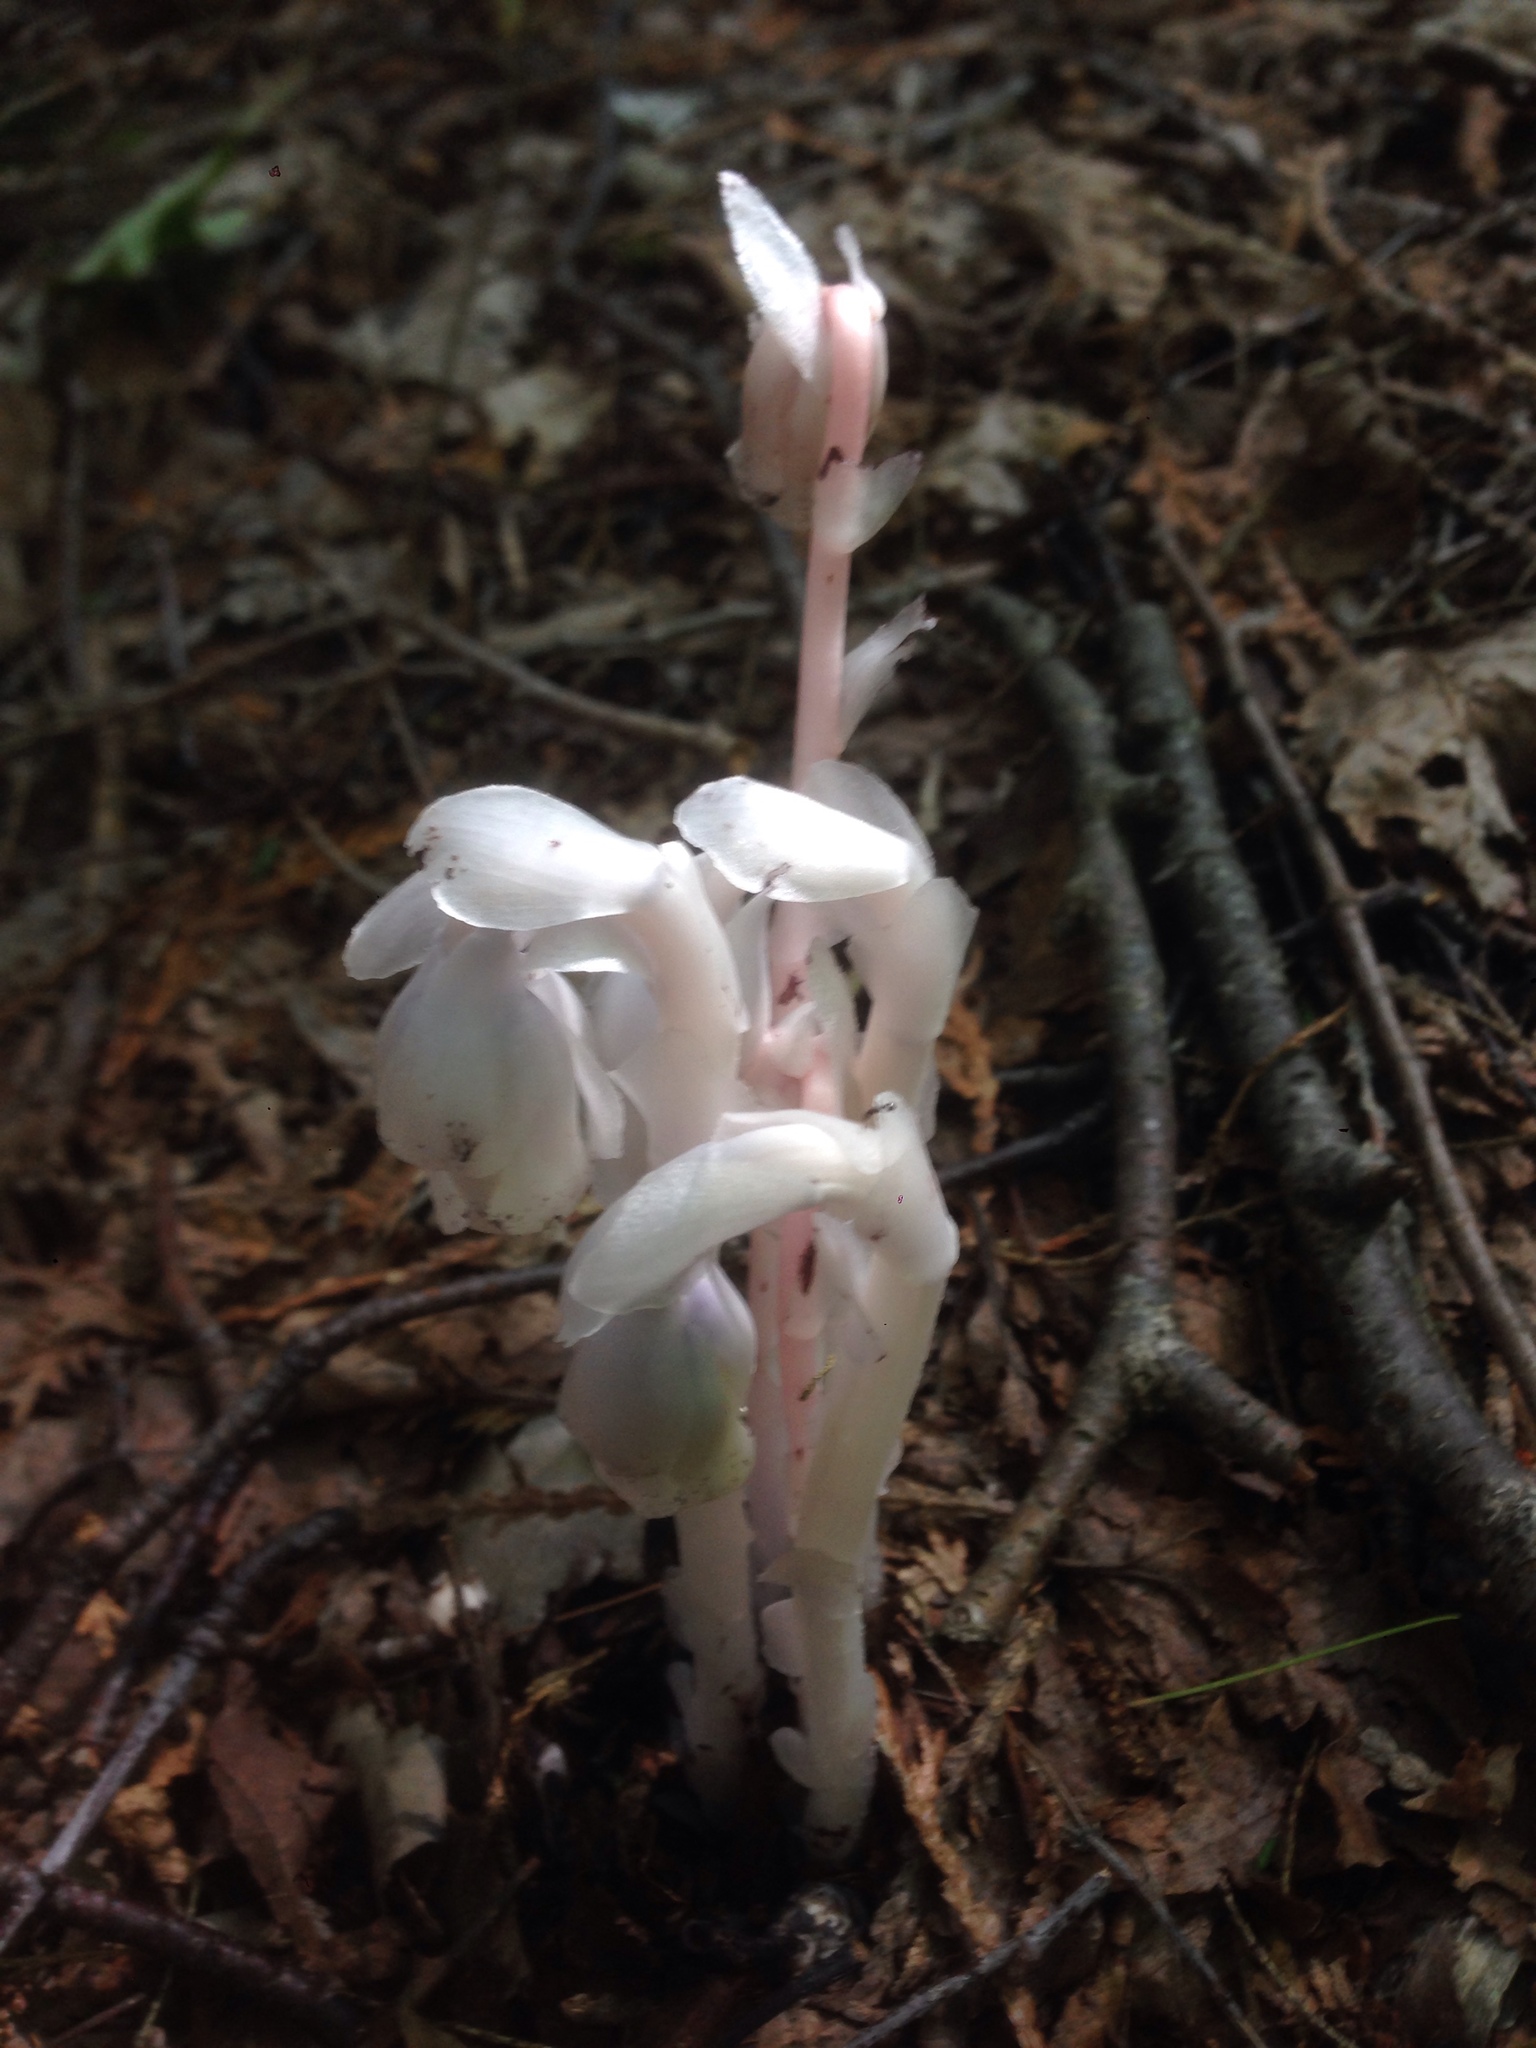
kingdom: Plantae
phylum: Tracheophyta
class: Magnoliopsida
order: Ericales
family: Ericaceae
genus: Monotropa
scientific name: Monotropa uniflora
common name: Convulsion root
